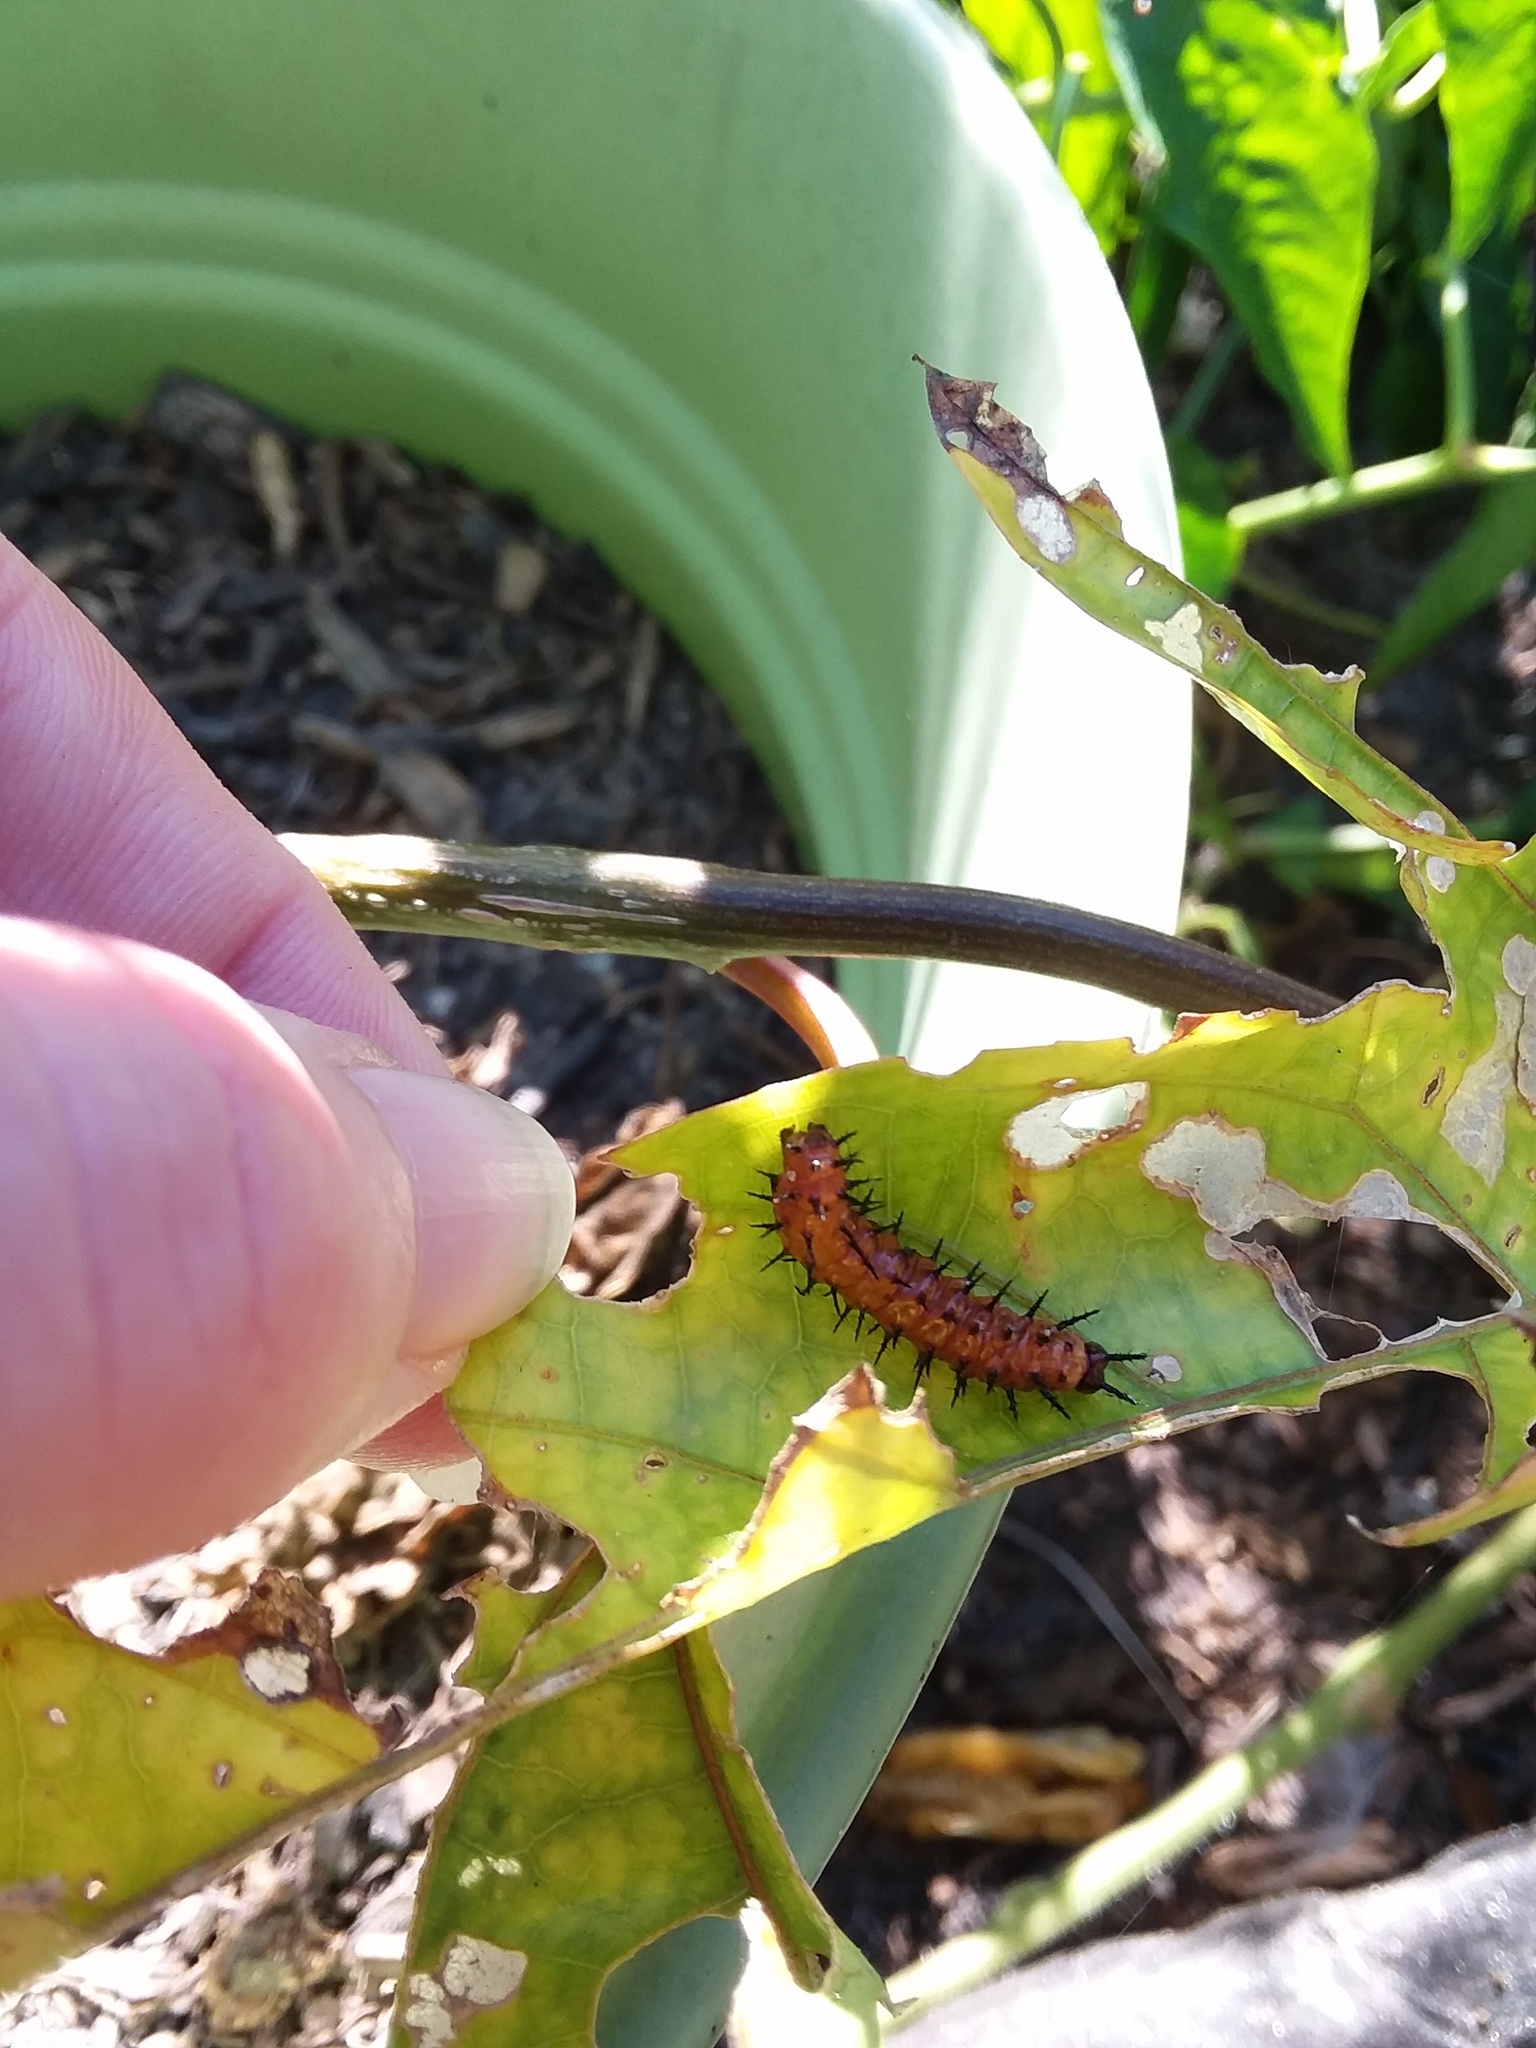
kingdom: Animalia
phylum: Arthropoda
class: Insecta
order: Lepidoptera
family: Nymphalidae
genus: Dione
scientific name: Dione vanillae
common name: Gulf fritillary
